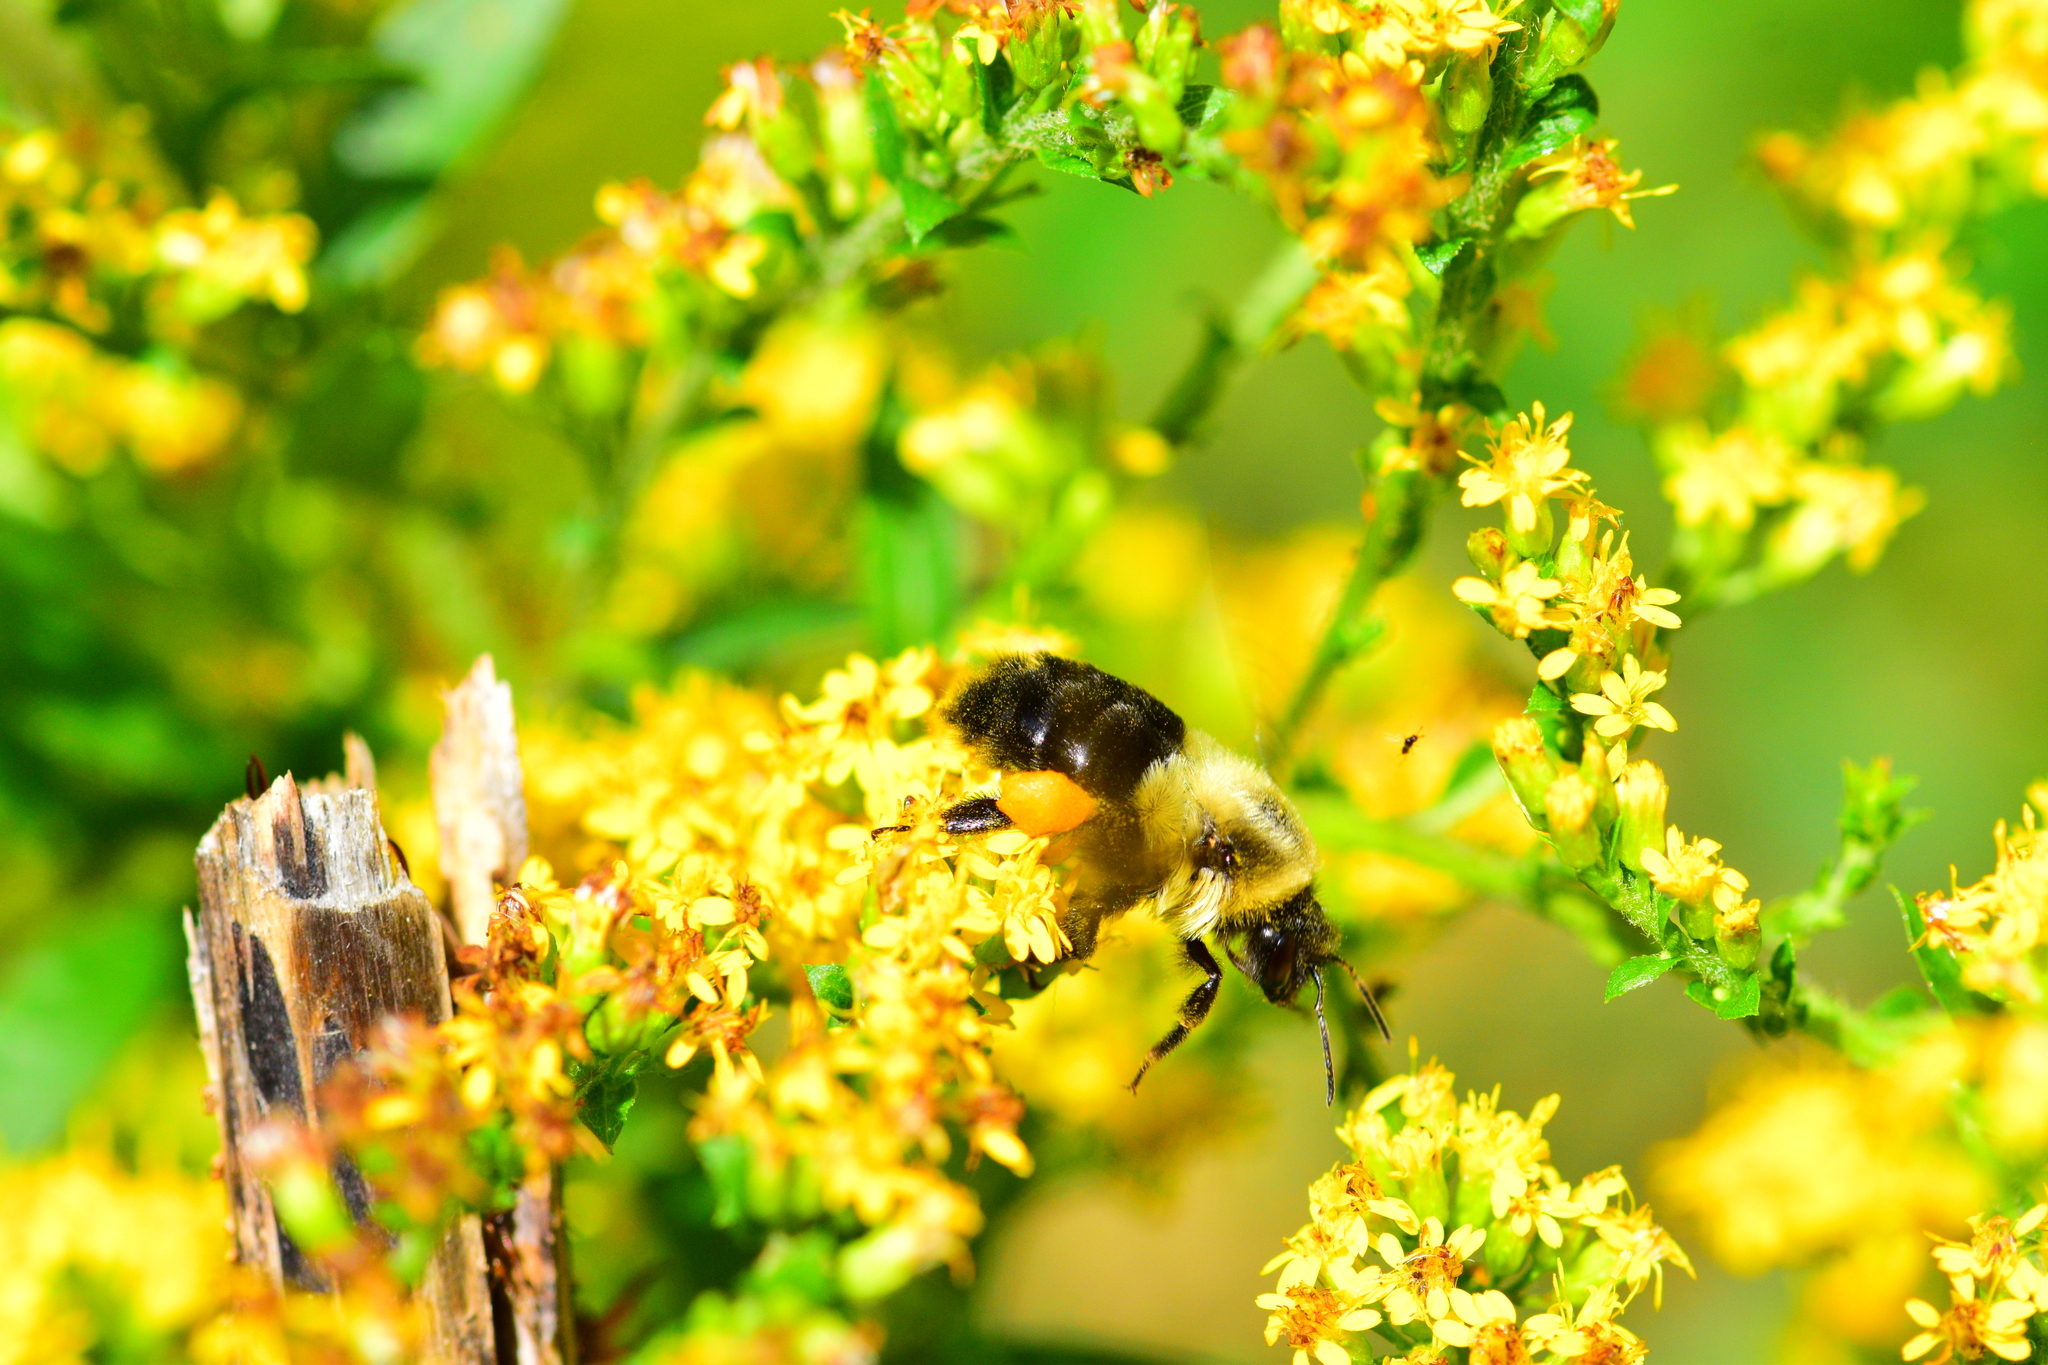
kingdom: Animalia
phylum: Arthropoda
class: Insecta
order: Hymenoptera
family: Apidae
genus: Bombus
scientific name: Bombus impatiens
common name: Common eastern bumble bee
